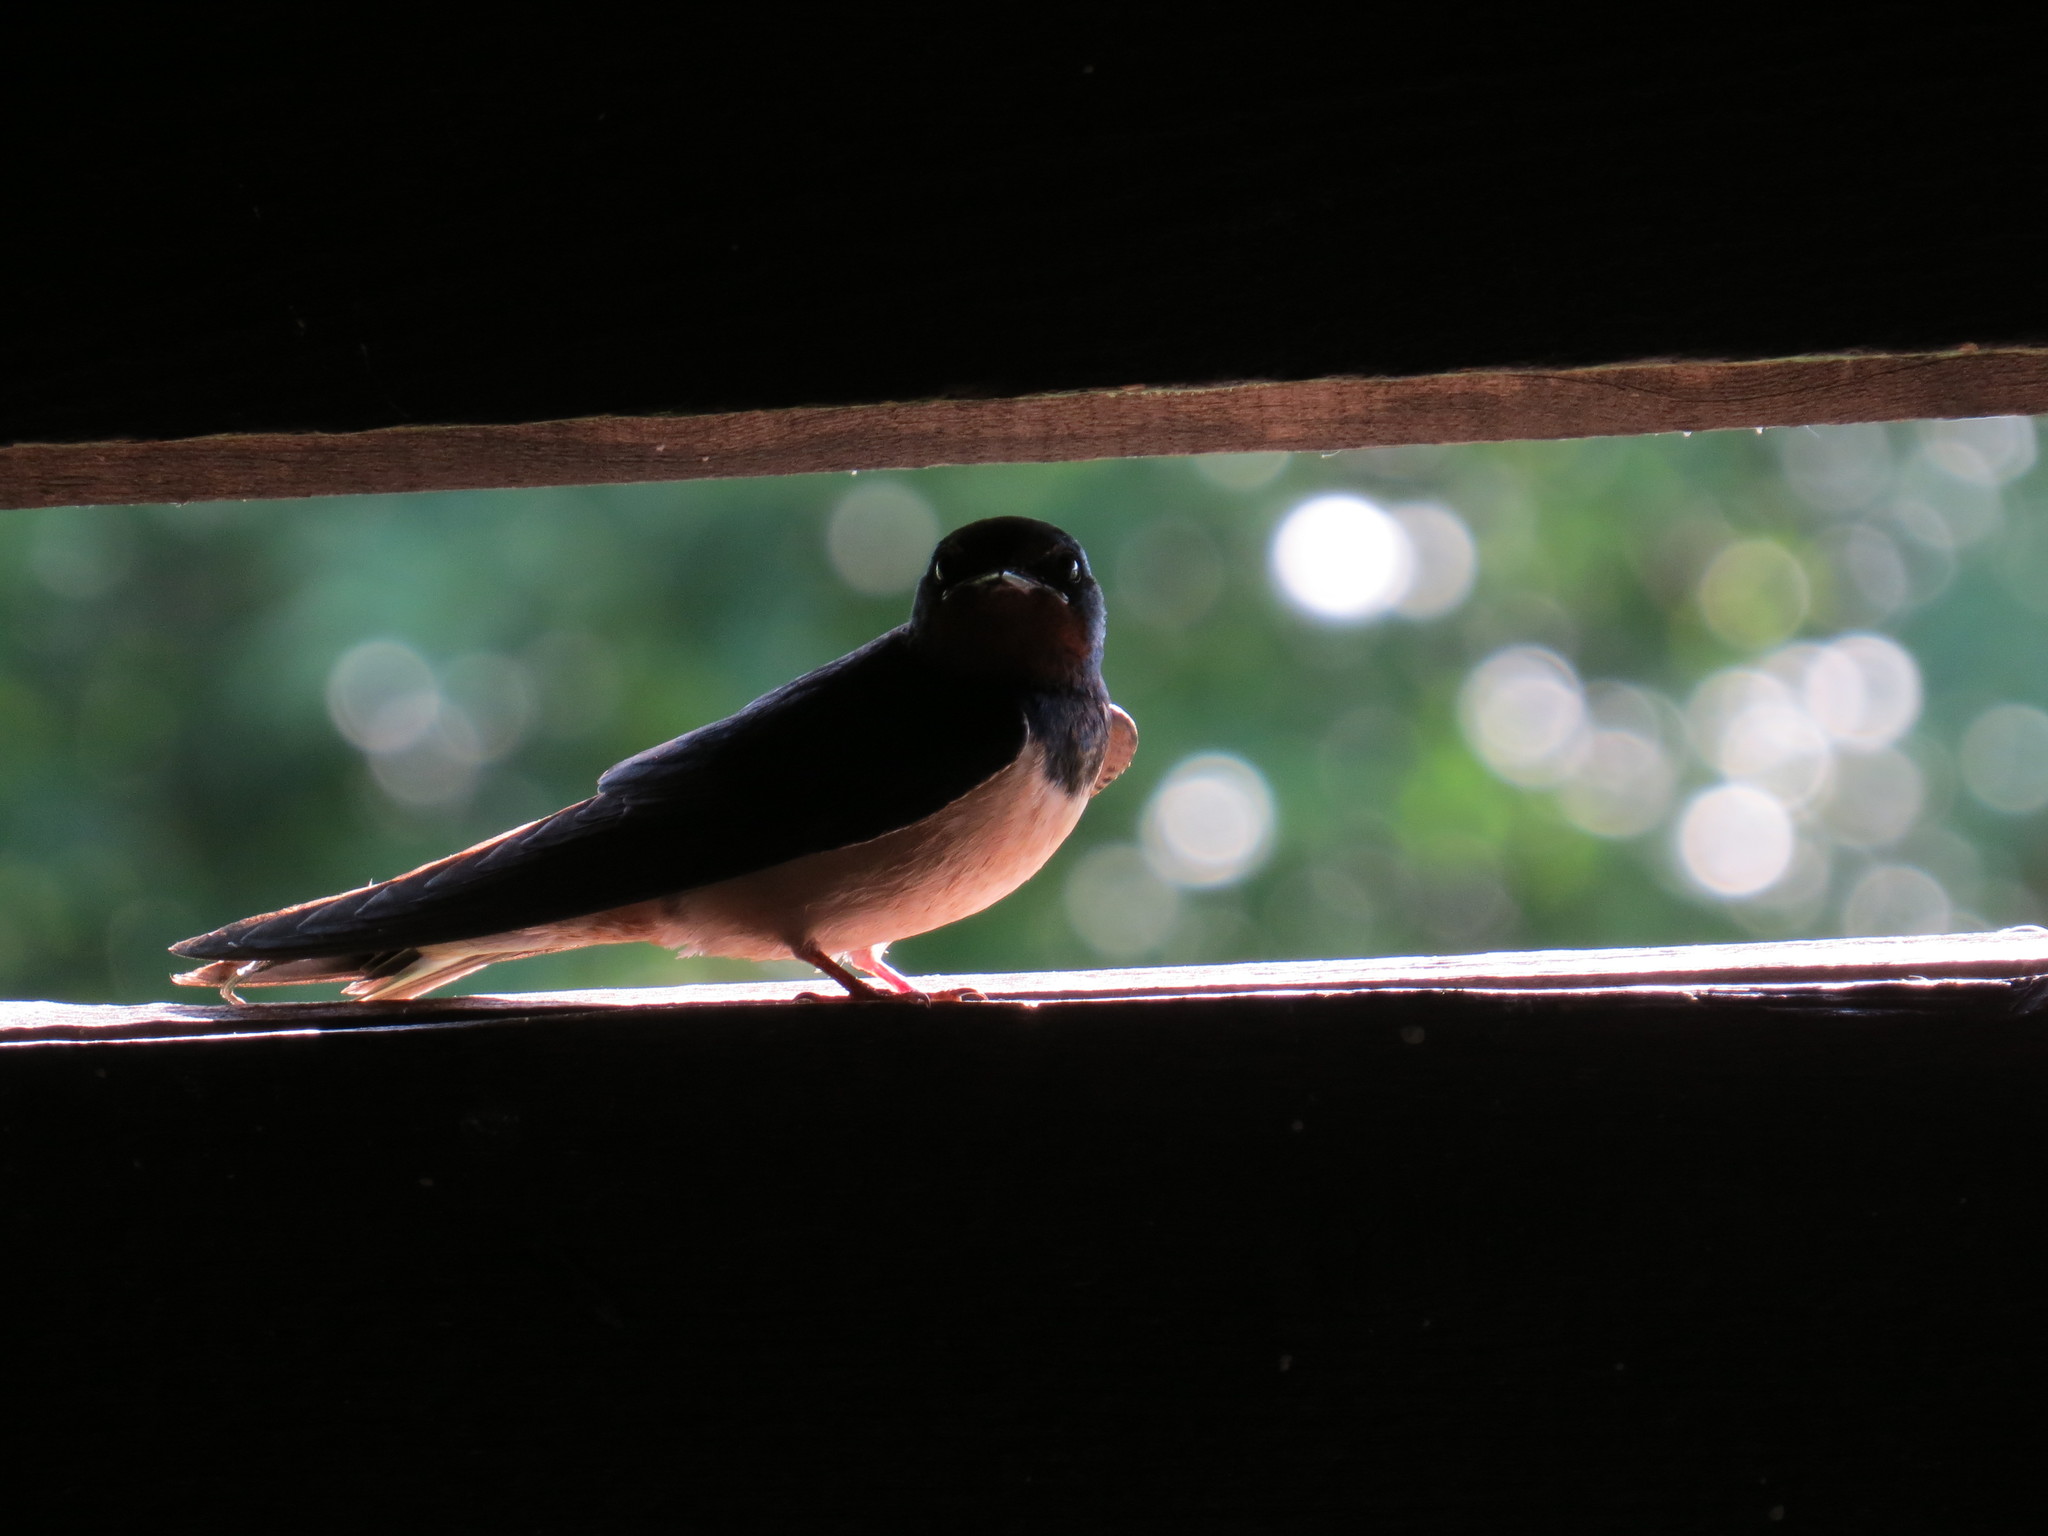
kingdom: Animalia
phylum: Chordata
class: Aves
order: Passeriformes
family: Hirundinidae
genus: Hirundo
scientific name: Hirundo rustica
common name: Barn swallow
